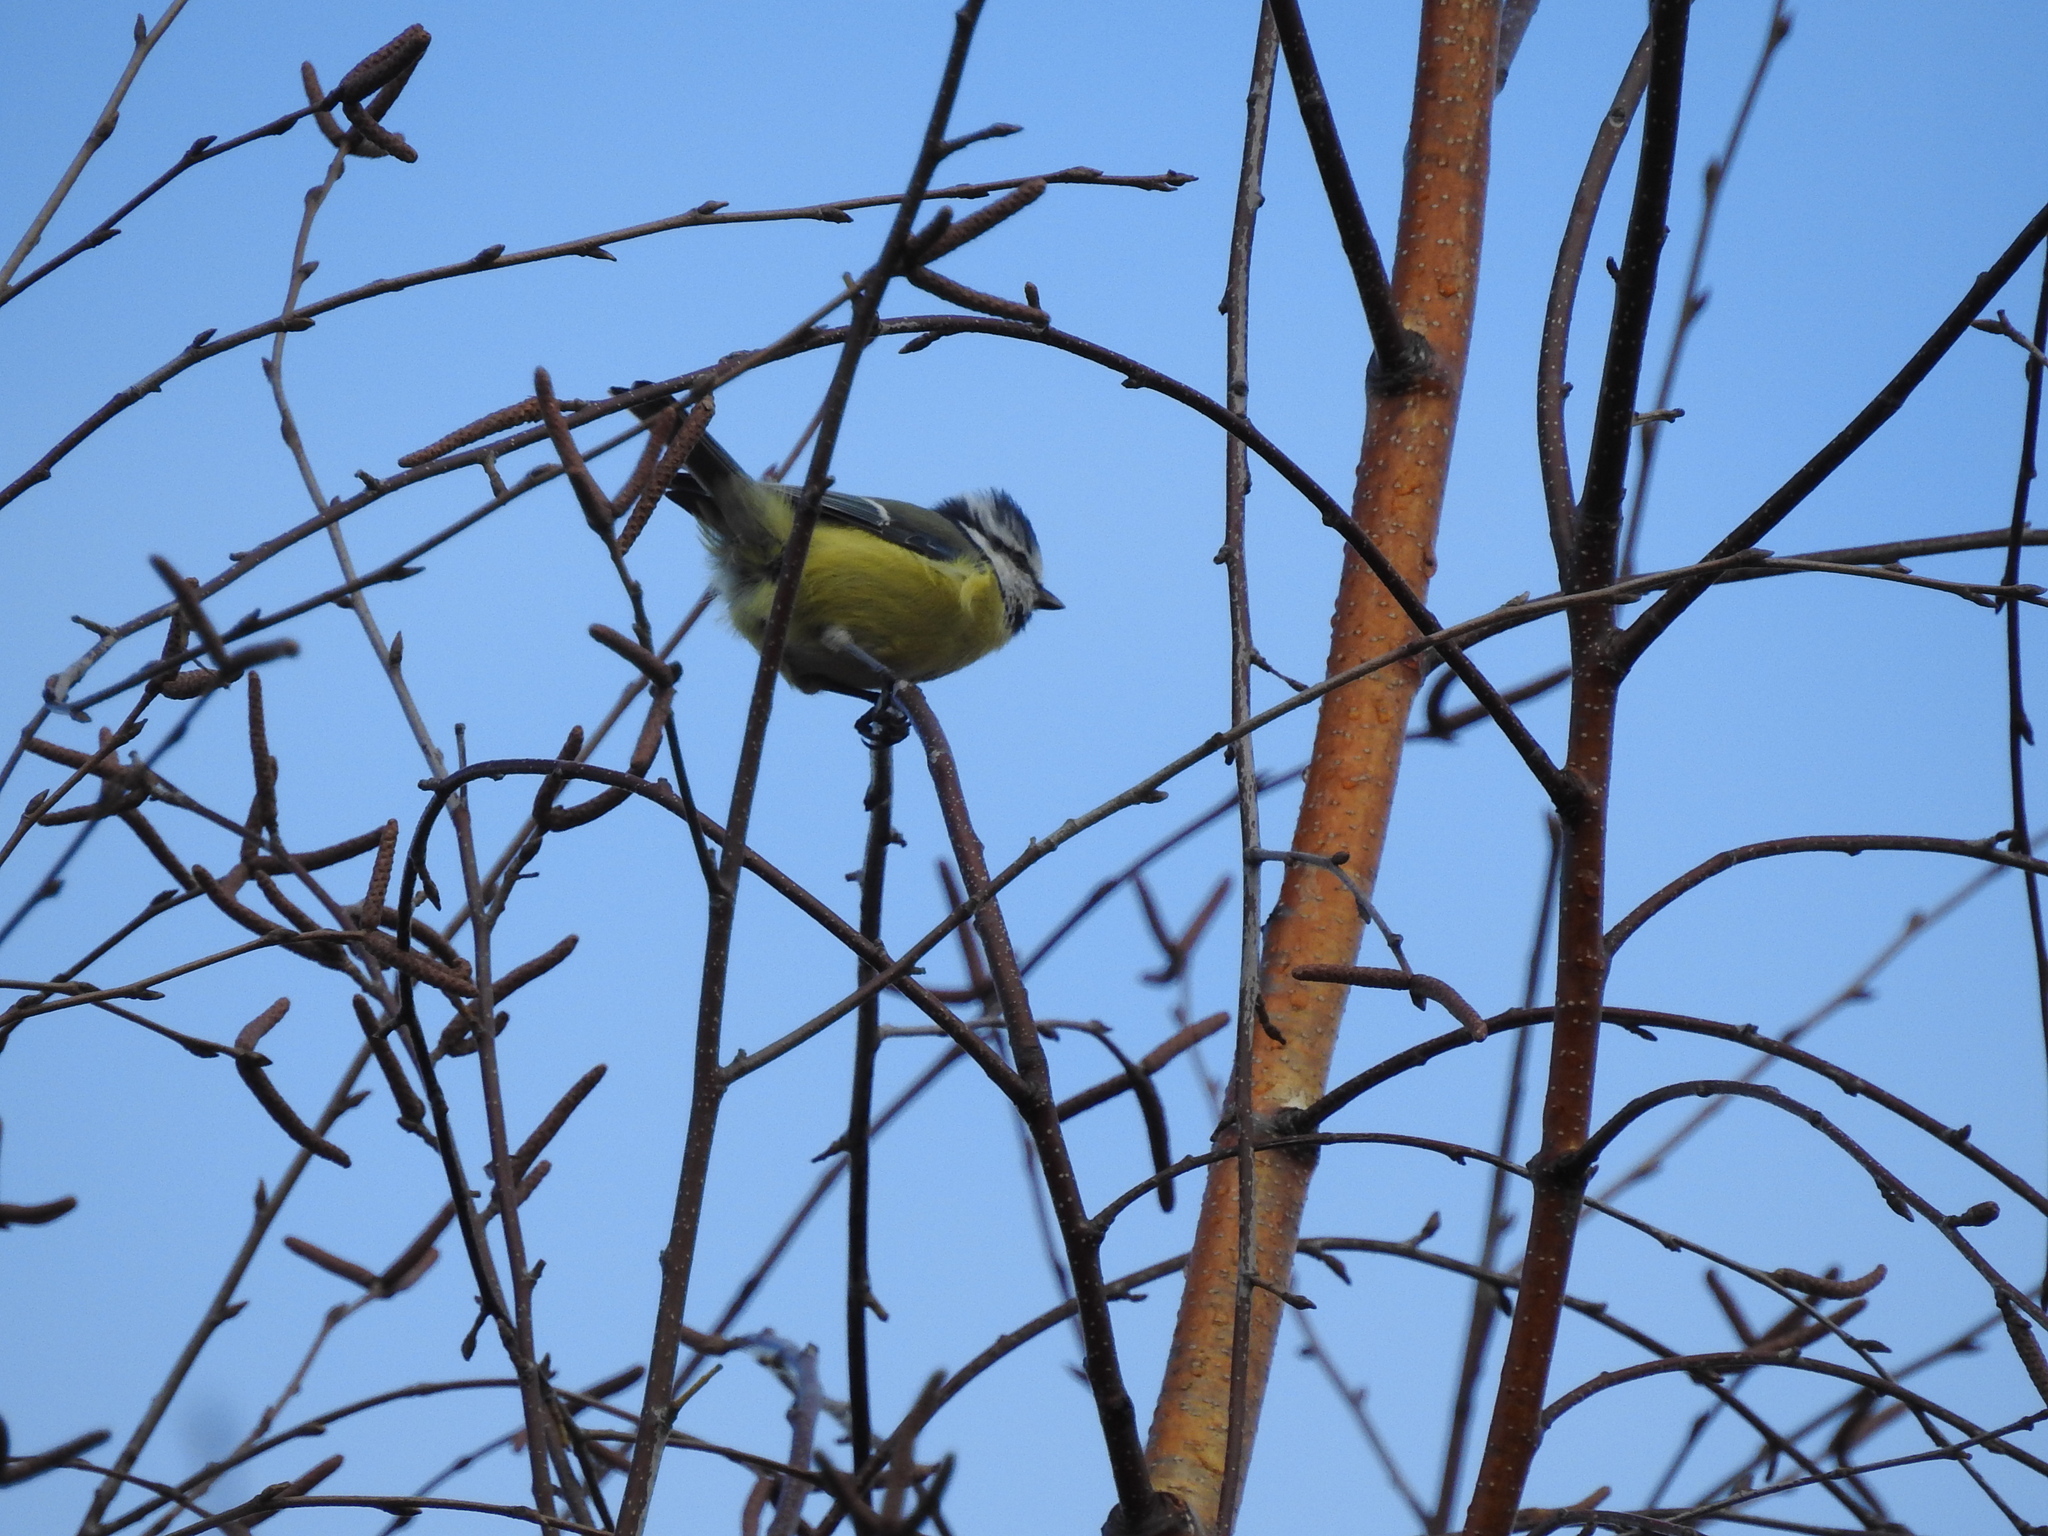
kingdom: Animalia
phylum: Chordata
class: Aves
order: Passeriformes
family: Paridae
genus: Cyanistes
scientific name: Cyanistes caeruleus
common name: Eurasian blue tit
